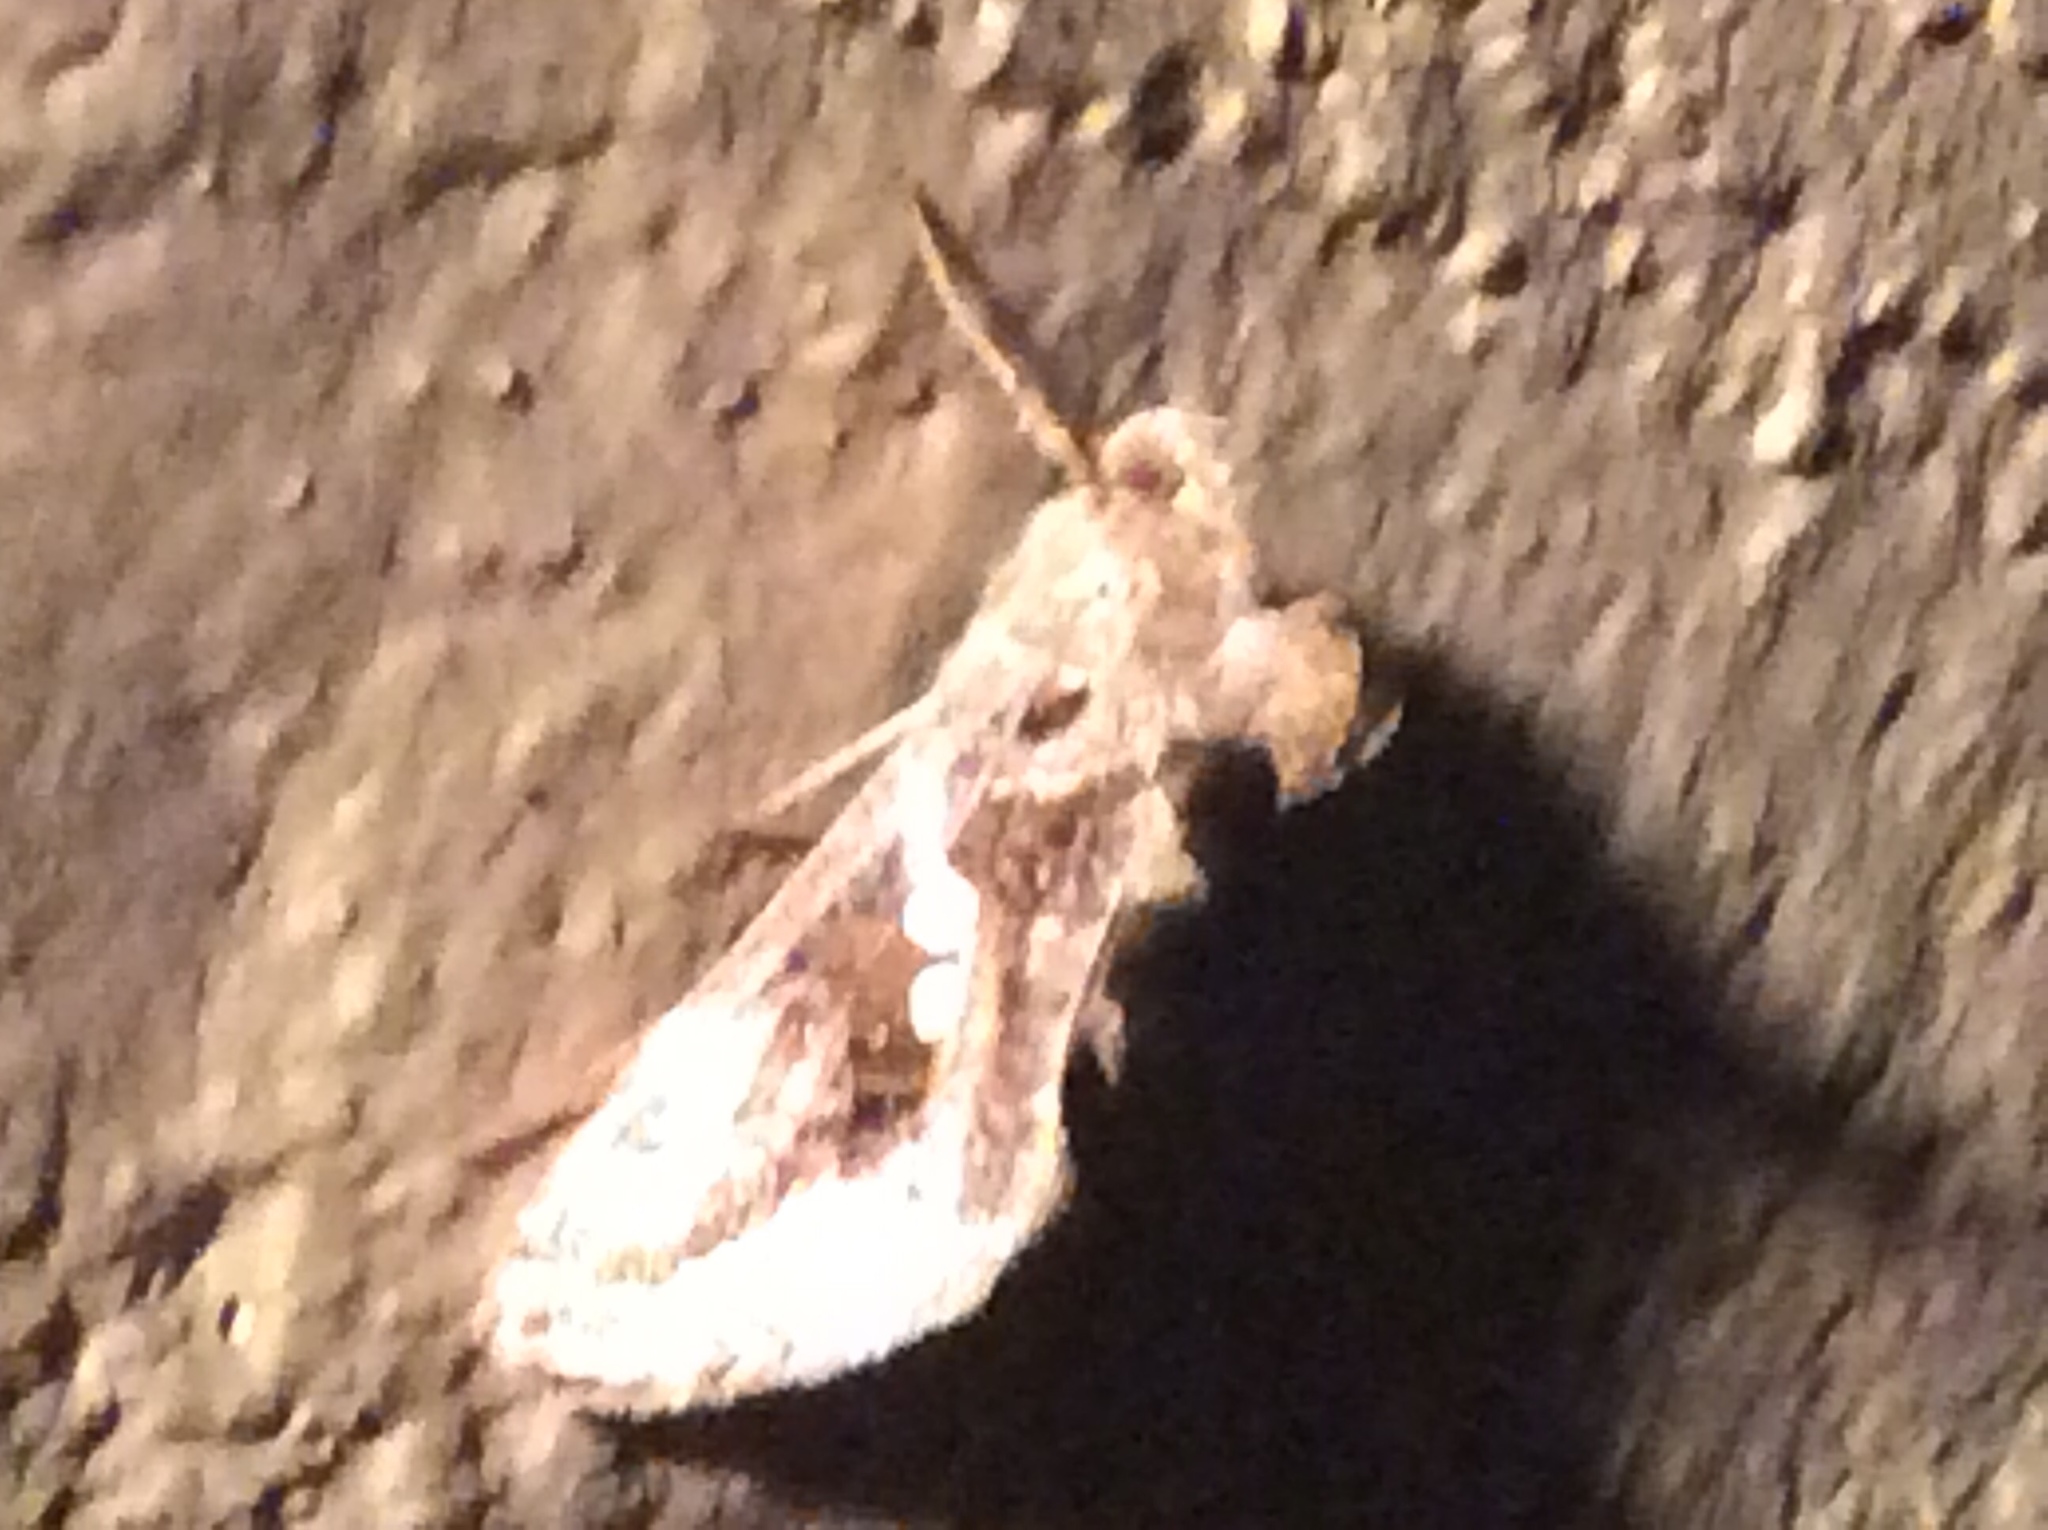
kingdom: Animalia
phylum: Arthropoda
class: Insecta
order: Lepidoptera
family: Noctuidae
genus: Chrysodeixis
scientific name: Chrysodeixis includens
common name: Cutworm moth
